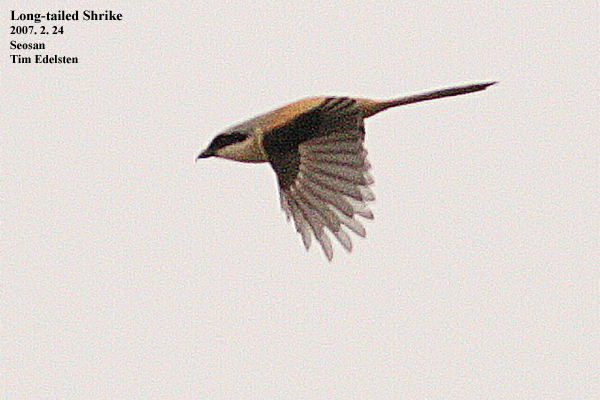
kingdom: Animalia
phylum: Chordata
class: Aves
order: Passeriformes
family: Laniidae
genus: Lanius
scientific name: Lanius schach
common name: Long-tailed shrike
